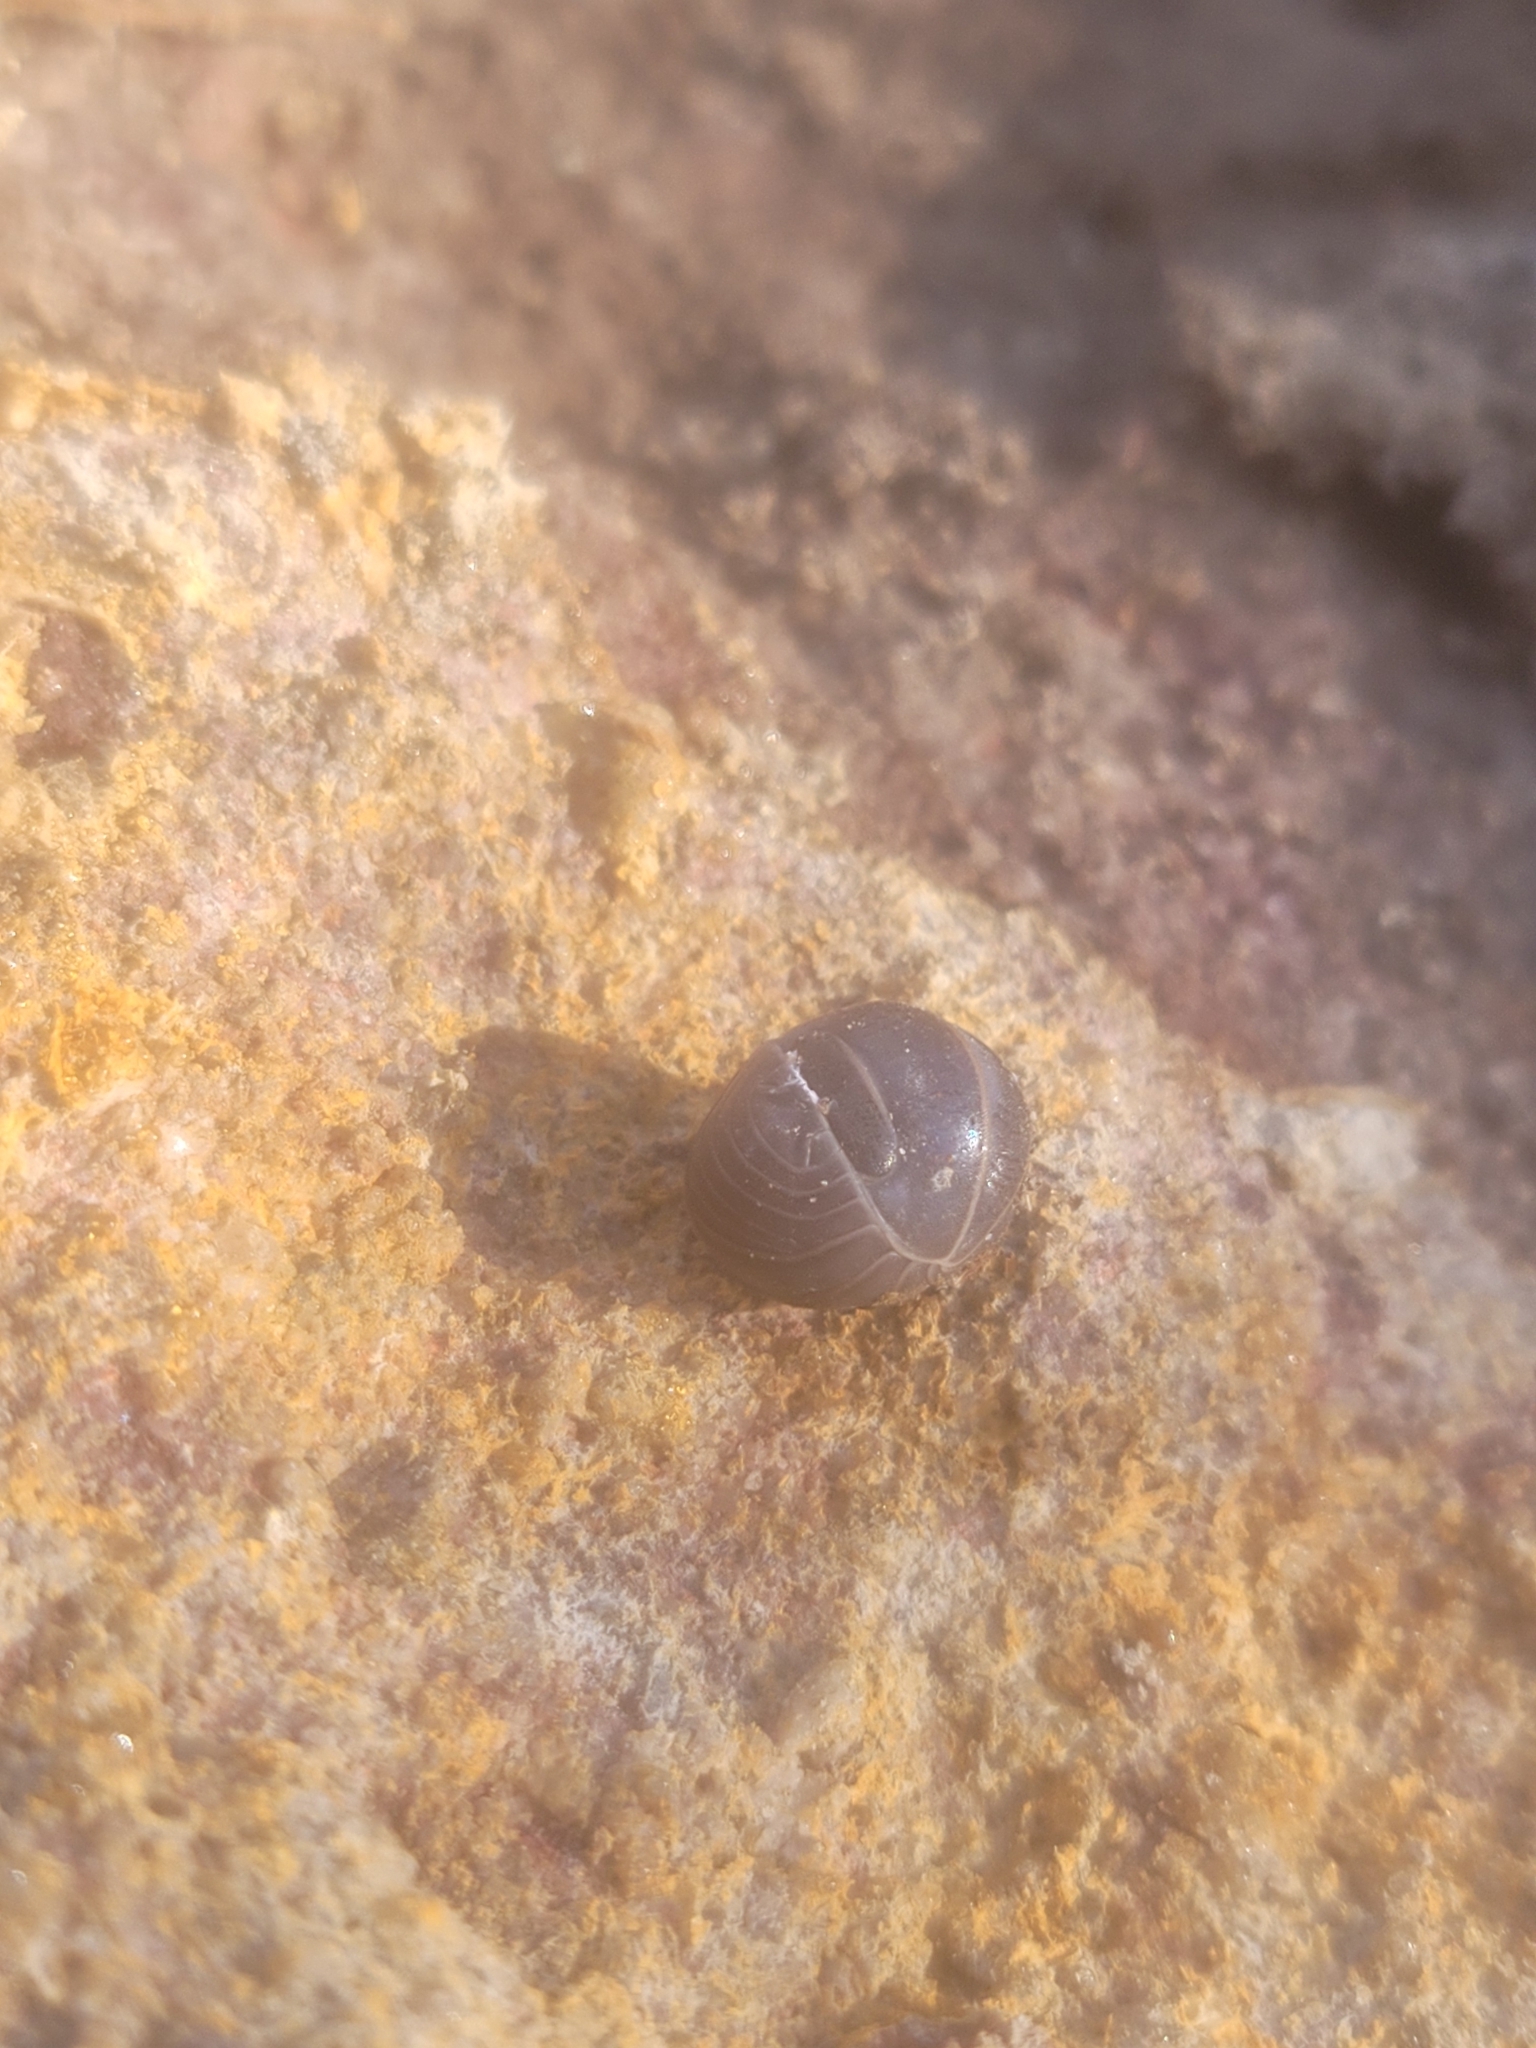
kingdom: Animalia
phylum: Arthropoda
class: Malacostraca
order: Isopoda
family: Armadillidae
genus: Armadillo
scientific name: Armadillo officinalis
